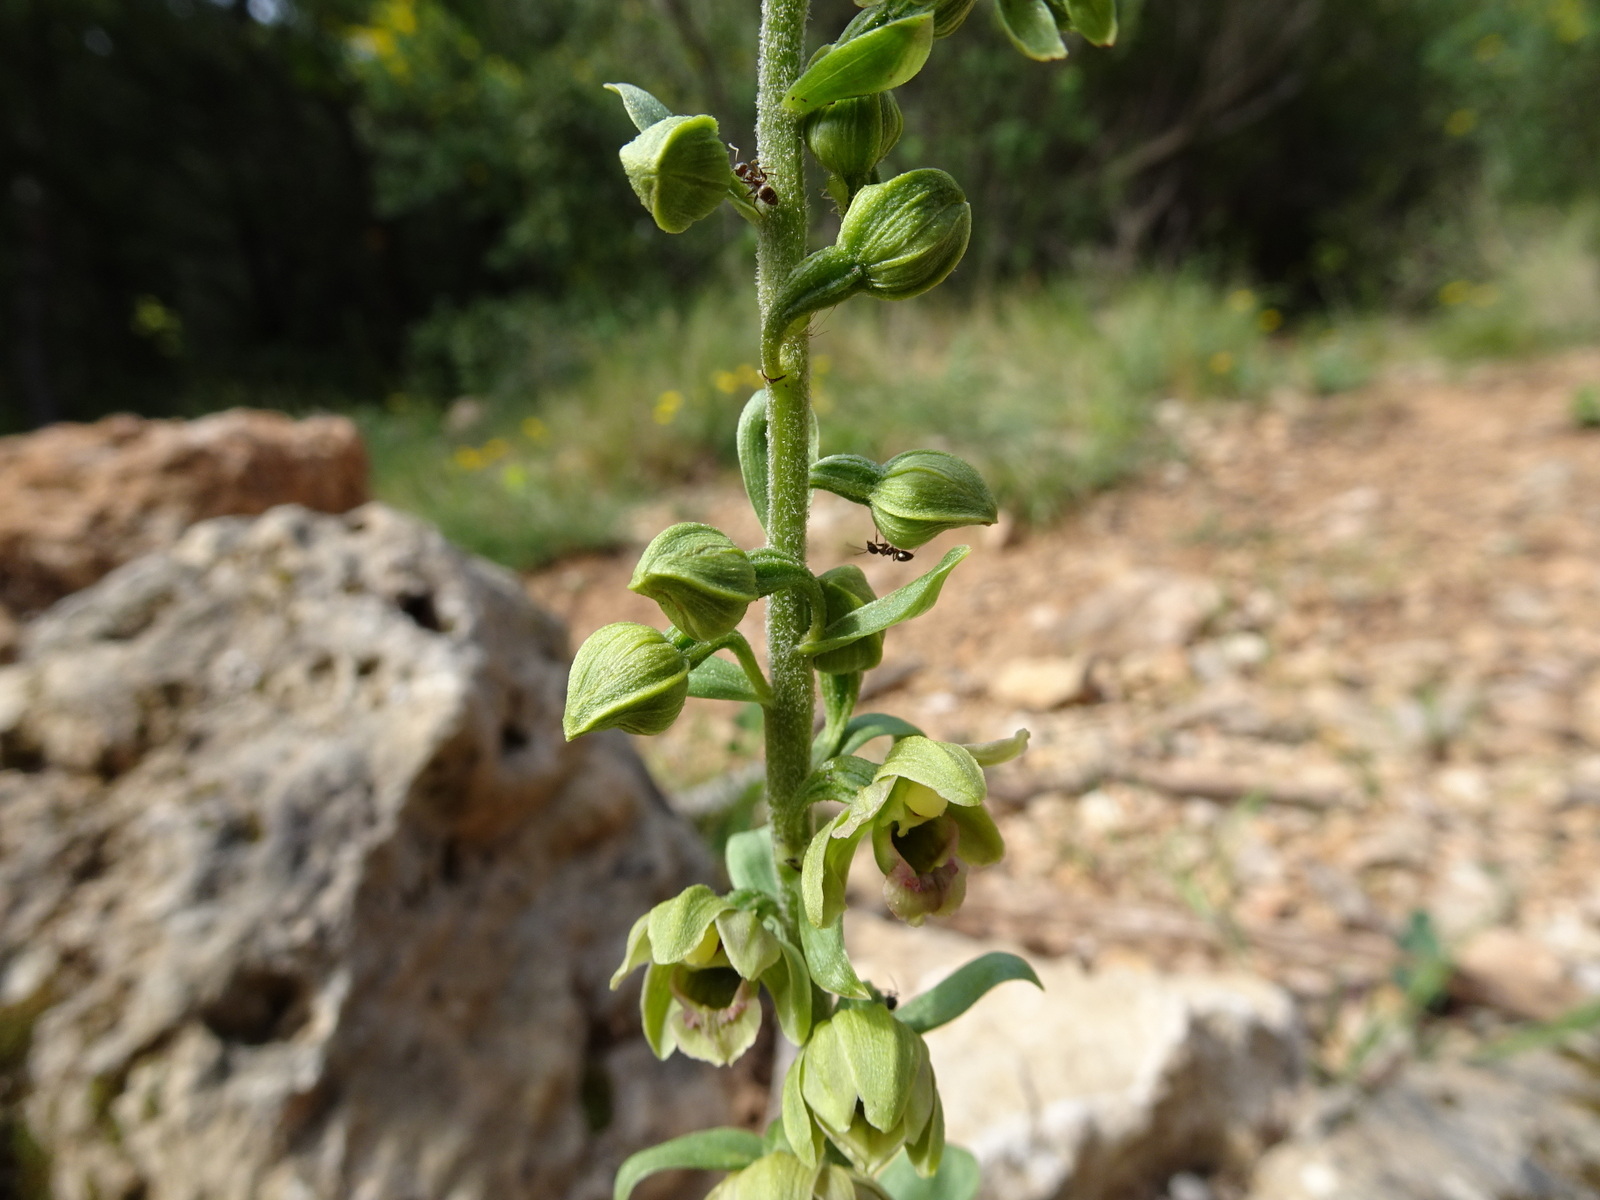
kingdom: Plantae
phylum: Tracheophyta
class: Liliopsida
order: Asparagales
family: Orchidaceae
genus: Epipactis
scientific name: Epipactis helleborine
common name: Broad-leaved helleborine
